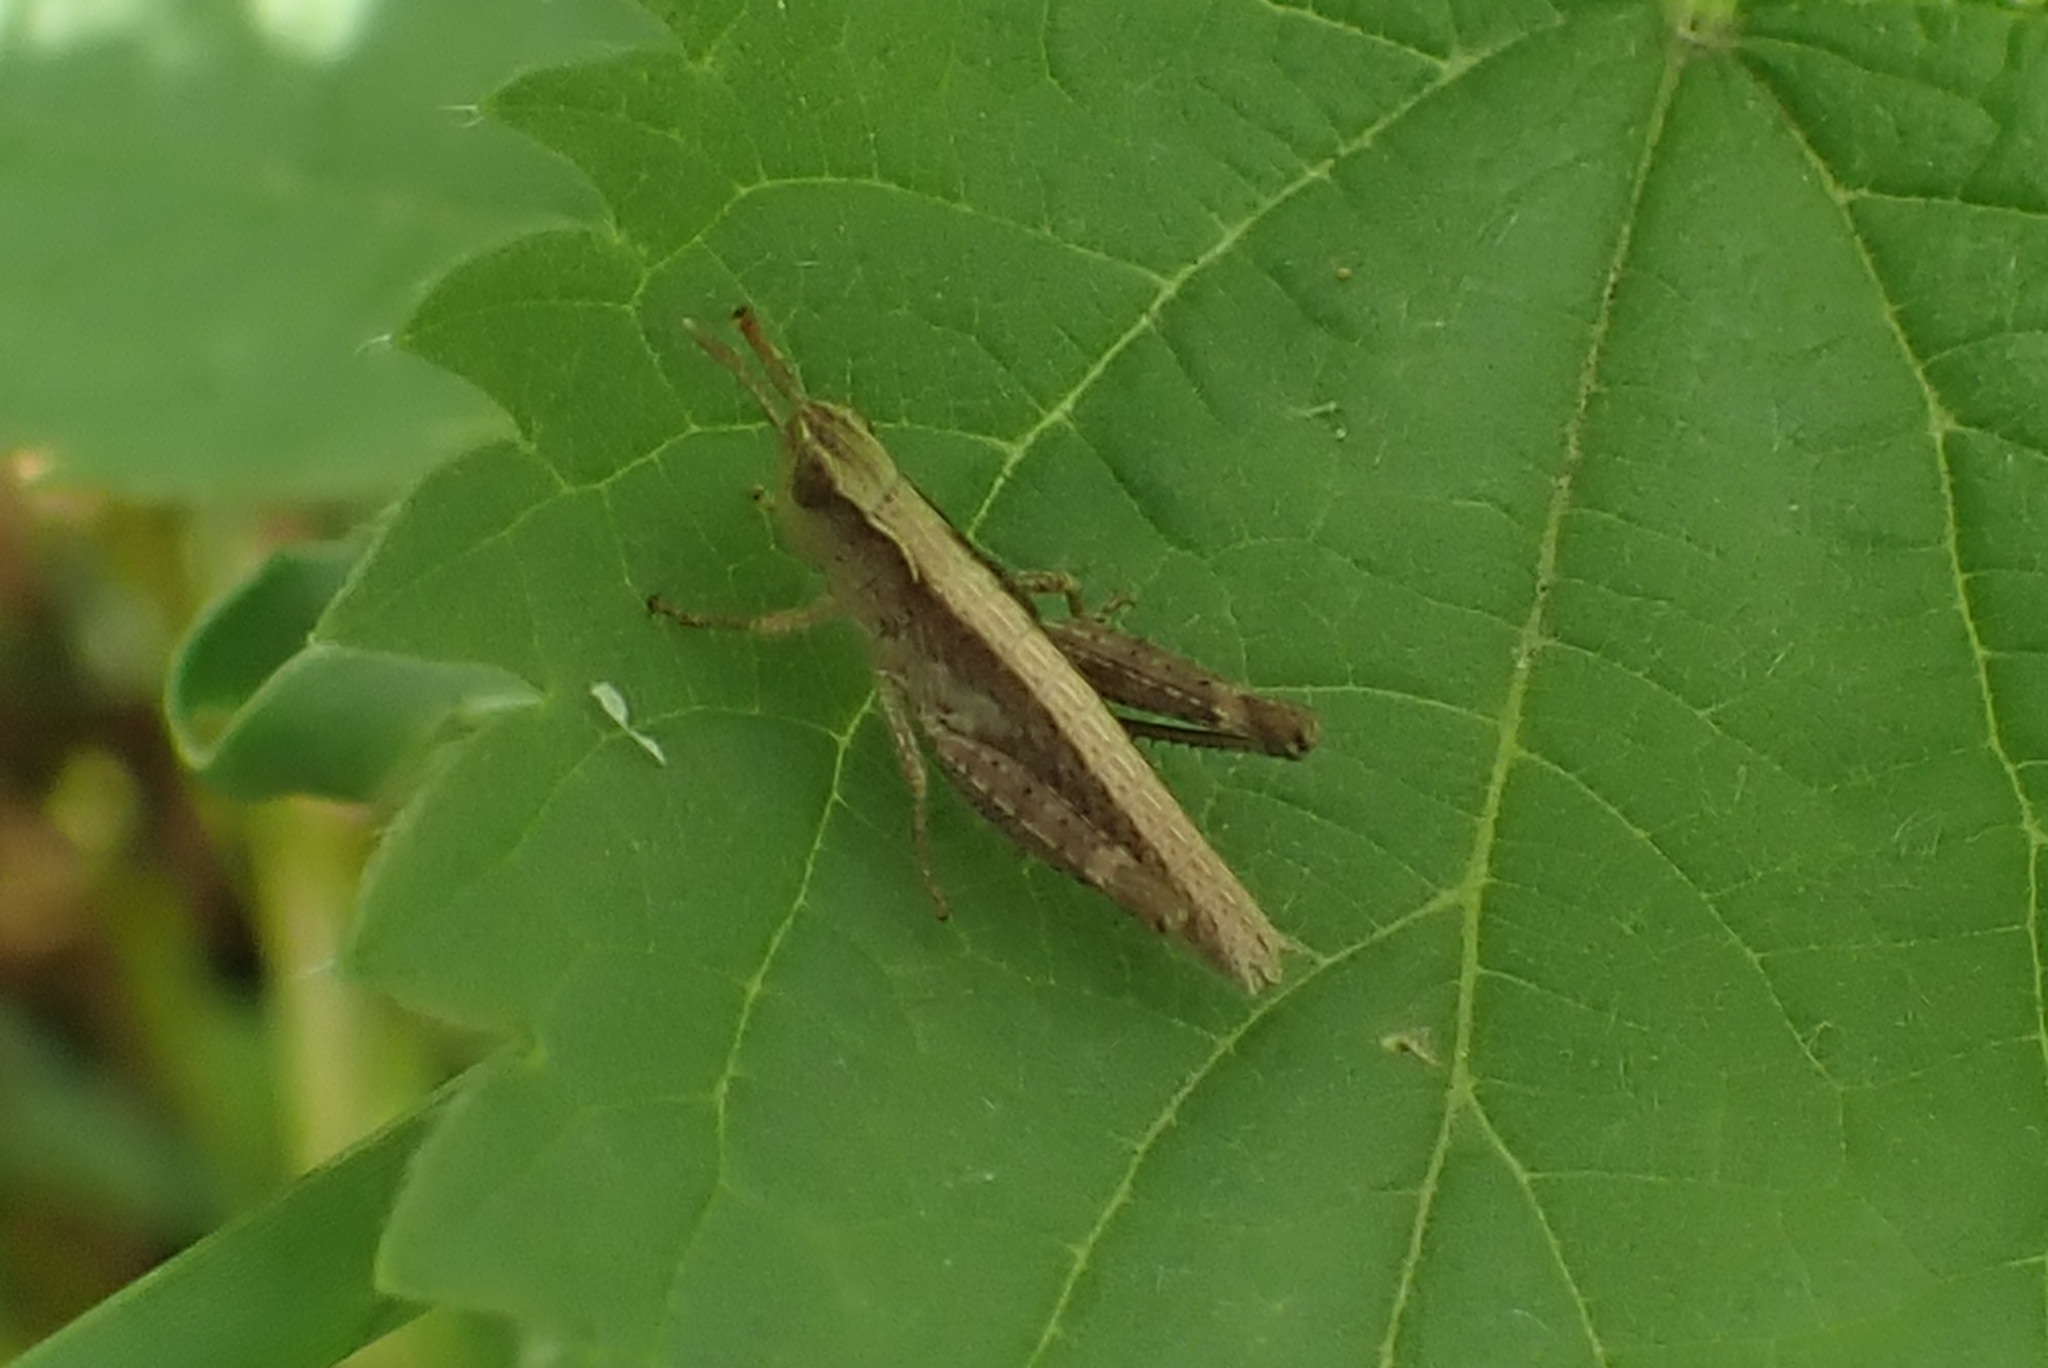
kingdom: Animalia
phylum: Arthropoda
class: Insecta
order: Orthoptera
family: Acrididae
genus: Gomphocerippus
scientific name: Gomphocerippus rufus
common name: Rufous grasshopper
